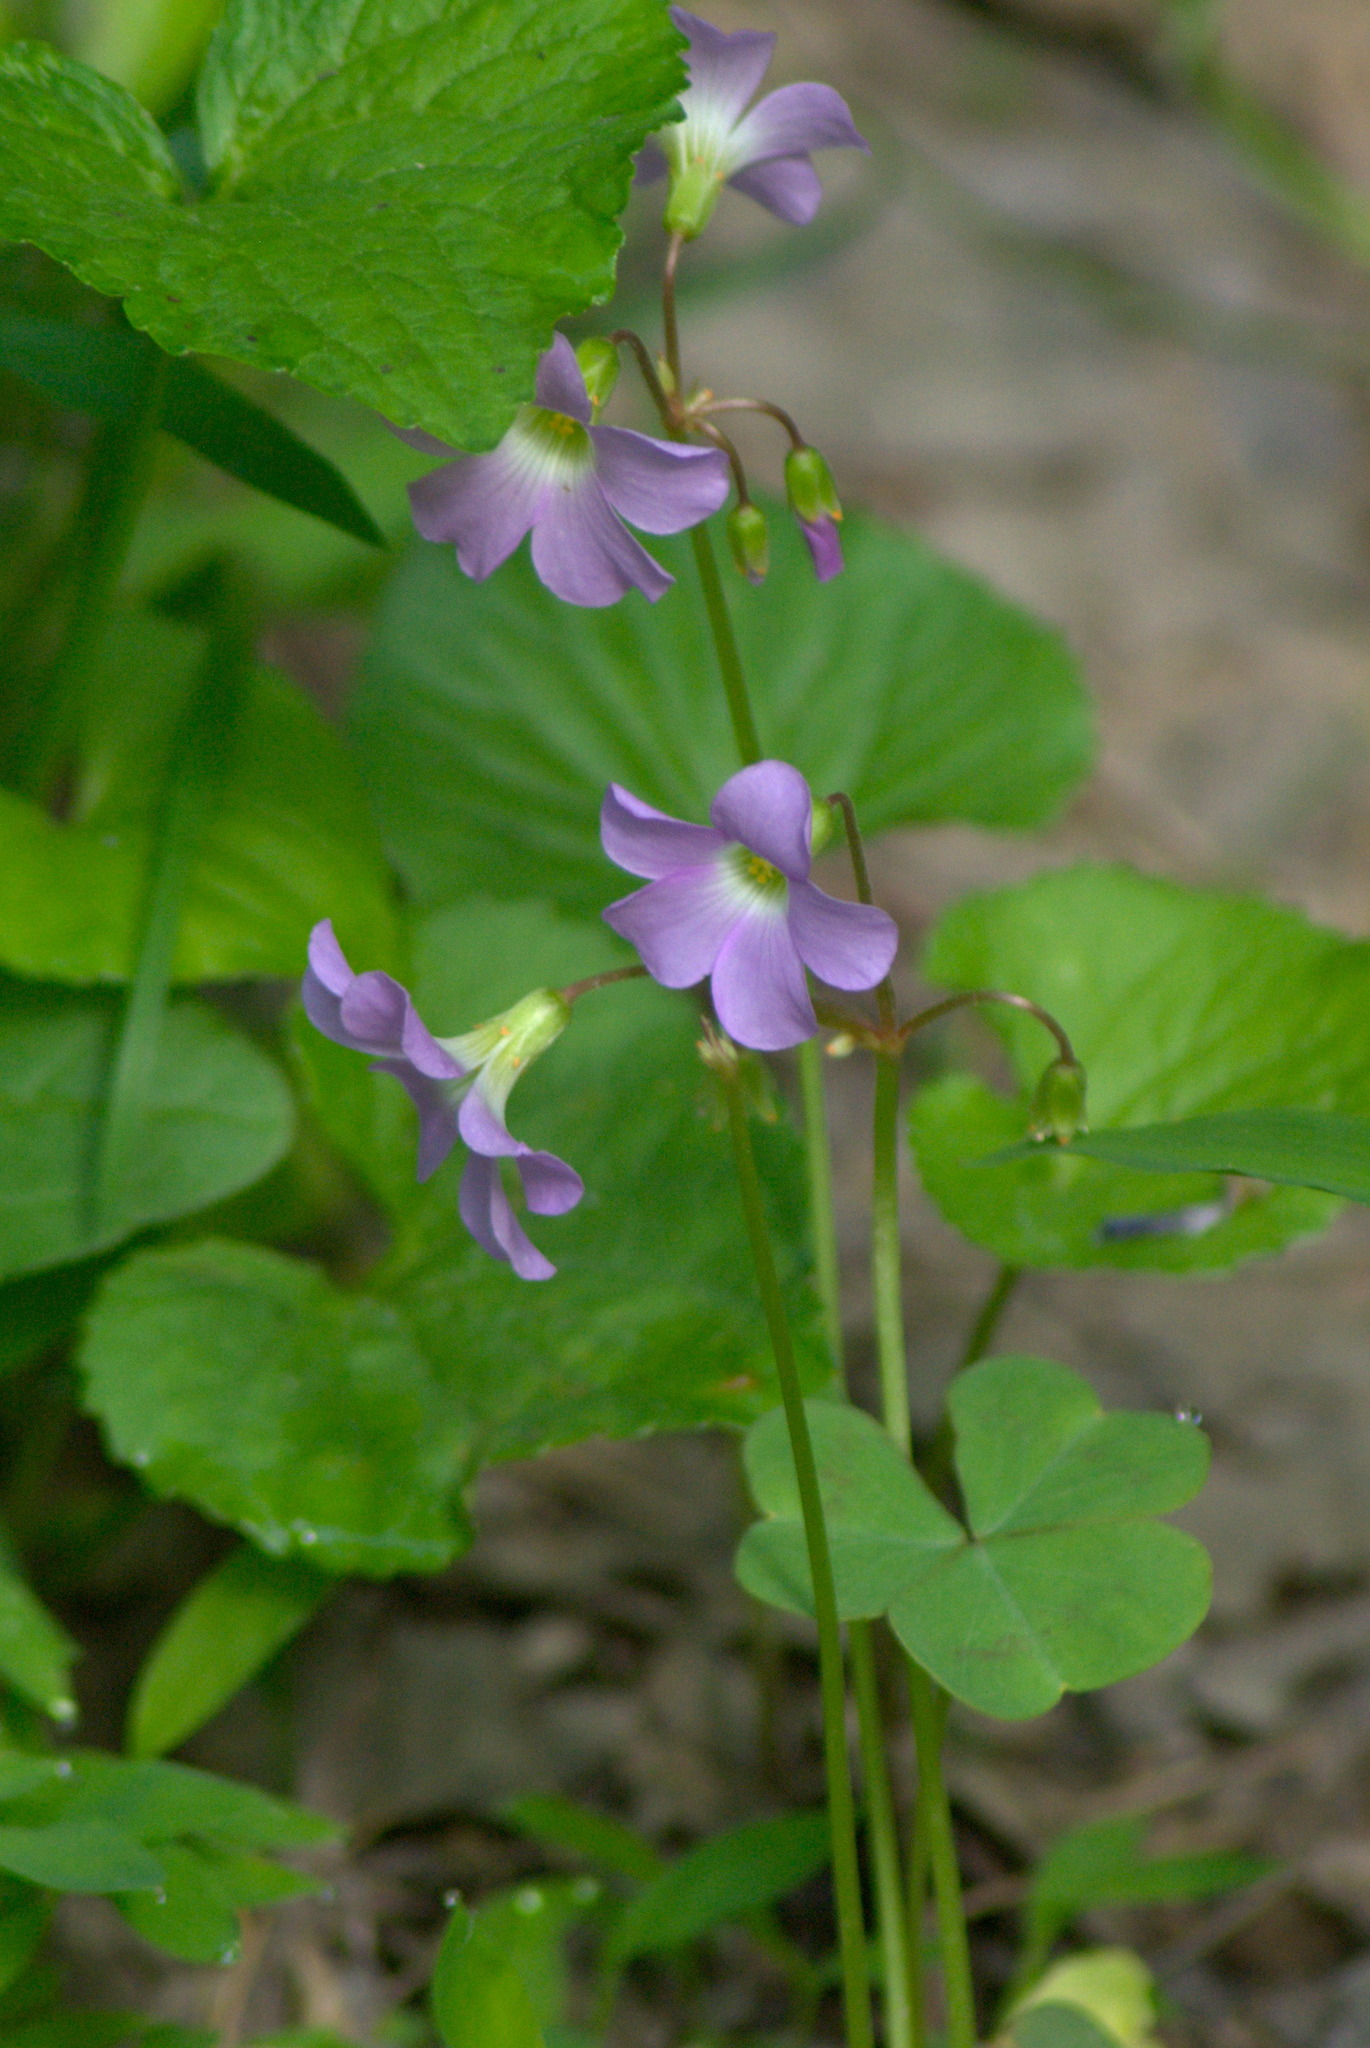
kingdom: Plantae
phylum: Tracheophyta
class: Magnoliopsida
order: Oxalidales
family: Oxalidaceae
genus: Oxalis
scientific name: Oxalis violacea
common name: Violet wood-sorrel
